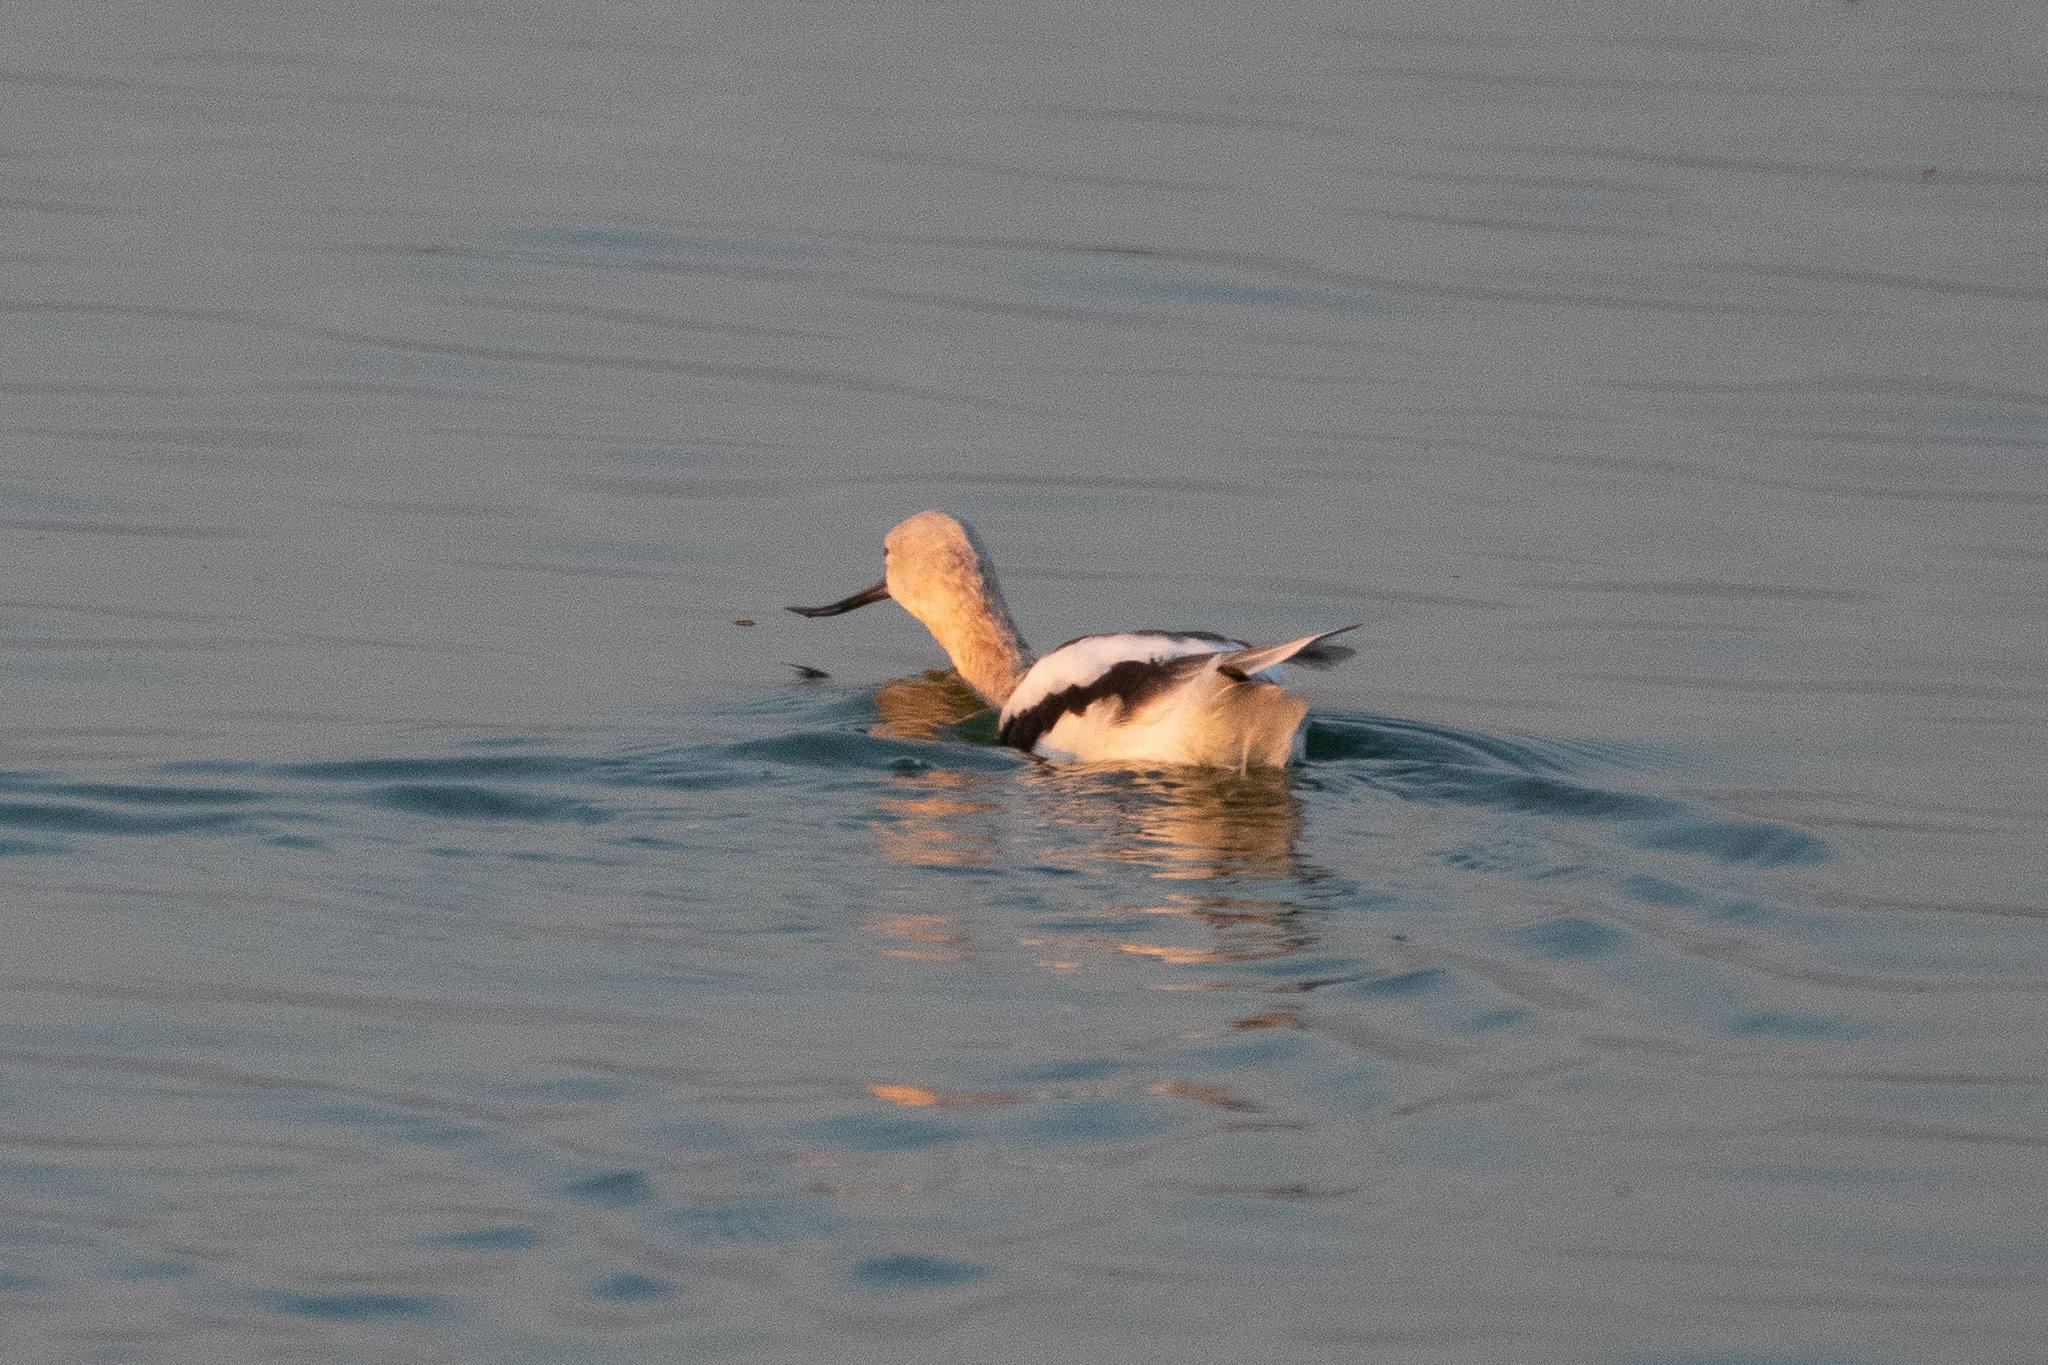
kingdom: Animalia
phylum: Chordata
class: Aves
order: Charadriiformes
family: Recurvirostridae
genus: Recurvirostra
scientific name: Recurvirostra americana
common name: American avocet
